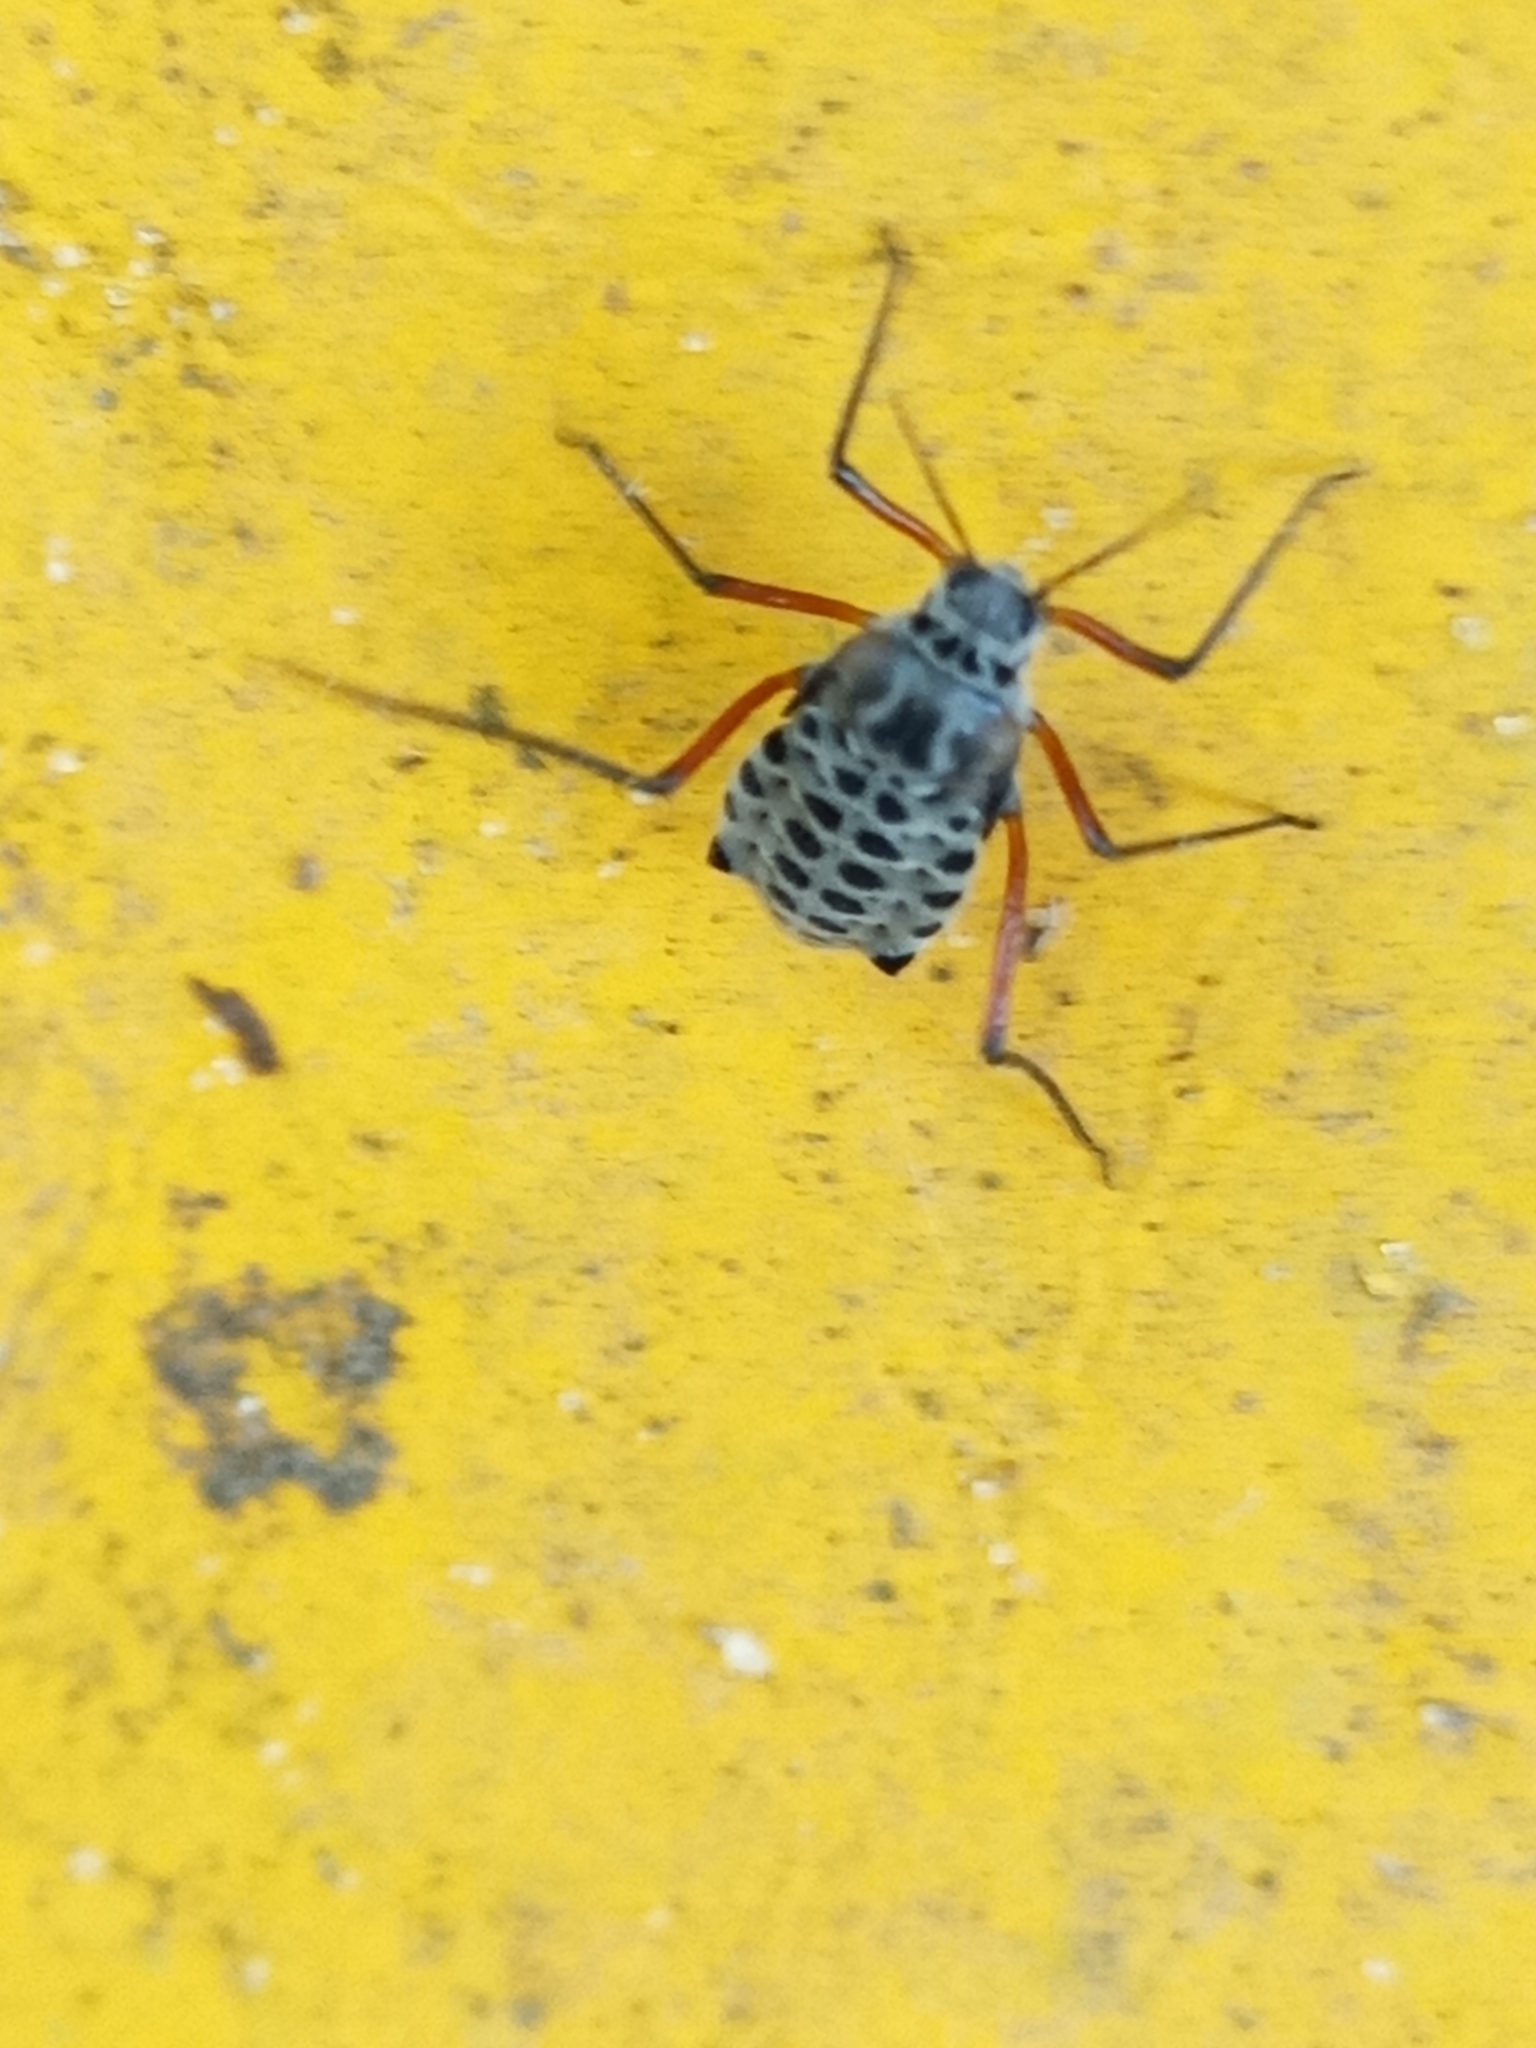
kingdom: Animalia
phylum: Arthropoda
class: Insecta
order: Hemiptera
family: Aphididae
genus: Longistigma
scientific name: Longistigma caryae
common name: Giant bark aphid
